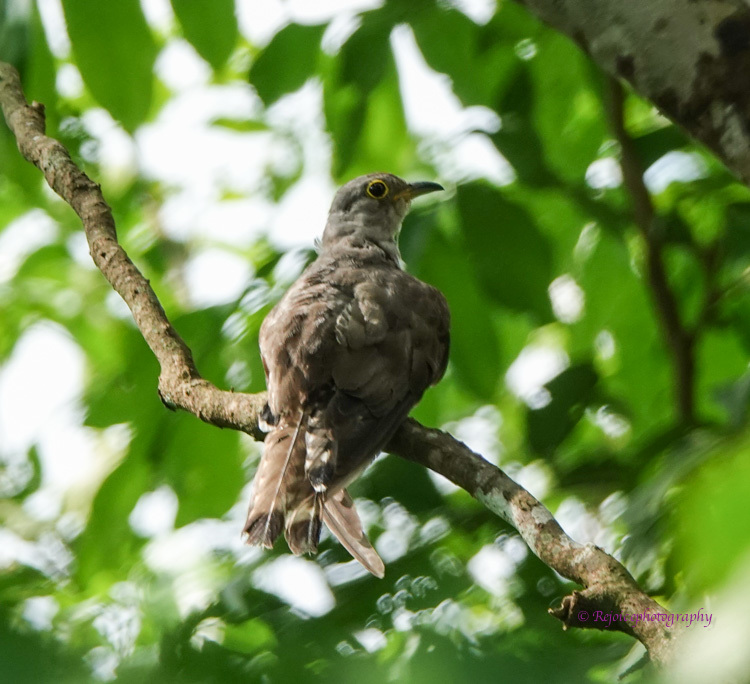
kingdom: Animalia
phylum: Chordata
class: Aves
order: Cuculiformes
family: Cuculidae
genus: Cuculus
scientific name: Cuculus micropterus
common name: Indian cuckoo
